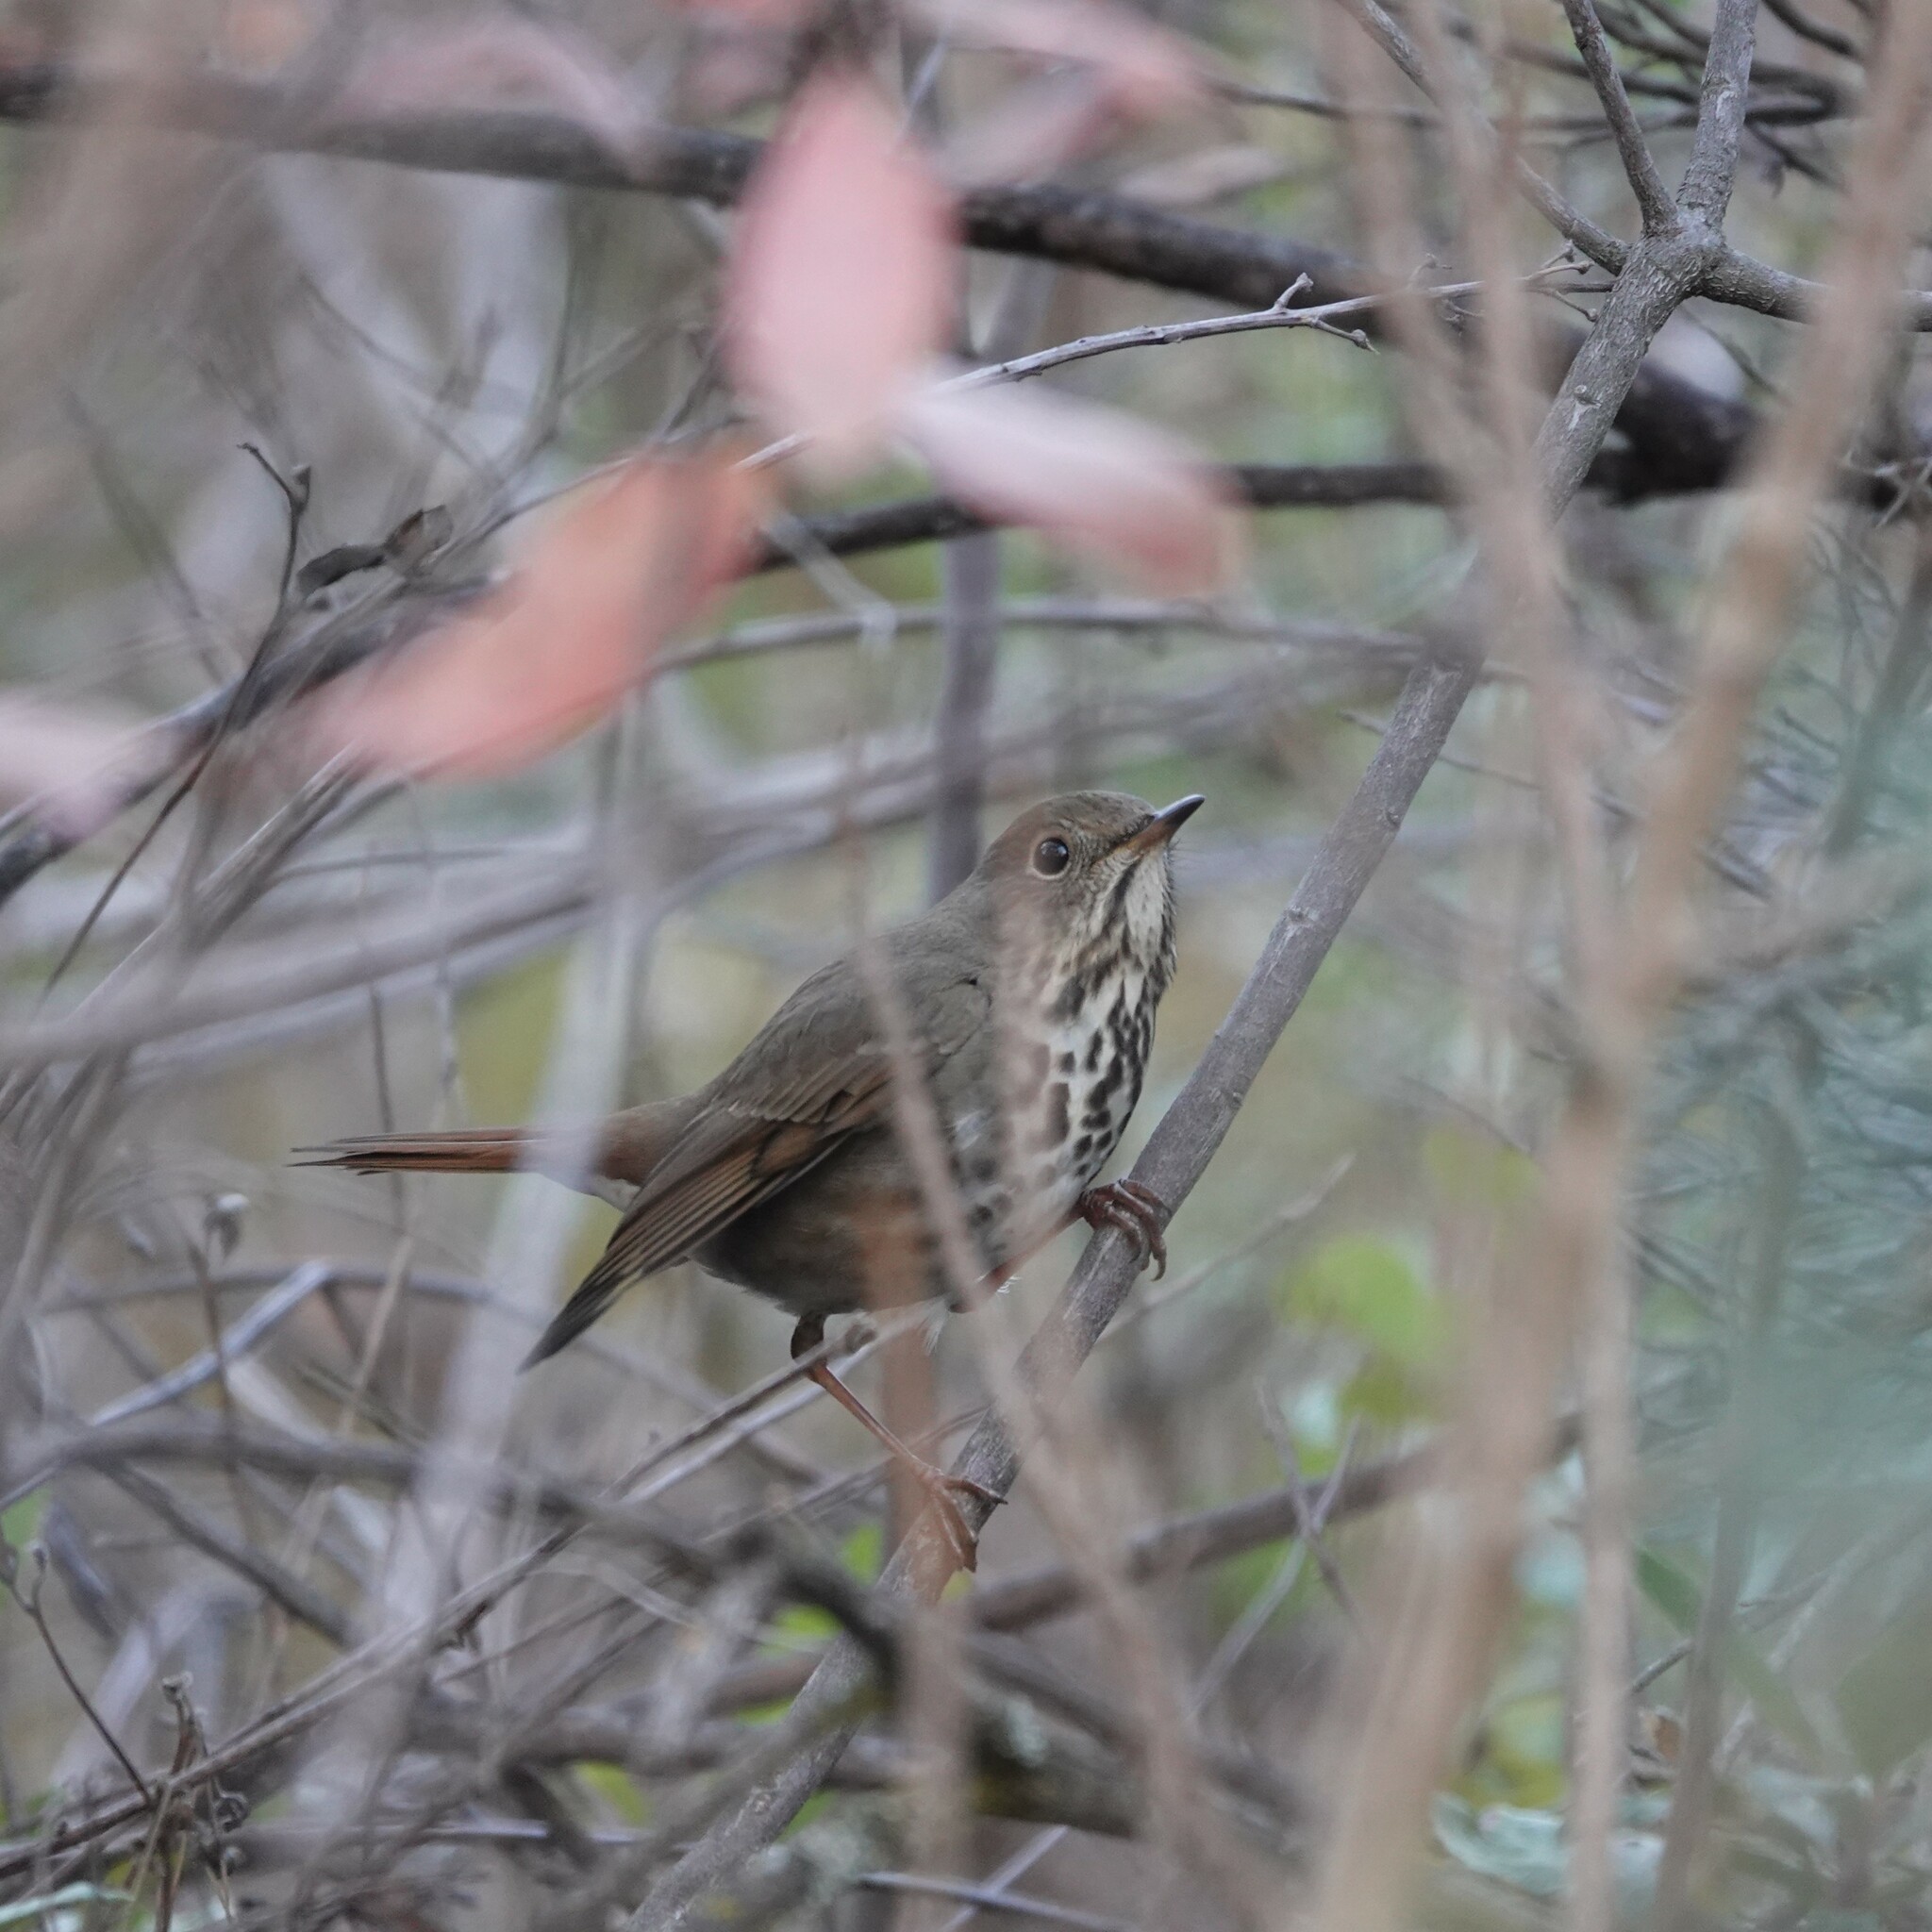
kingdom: Animalia
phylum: Chordata
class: Aves
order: Passeriformes
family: Turdidae
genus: Catharus
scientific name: Catharus guttatus
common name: Hermit thrush
